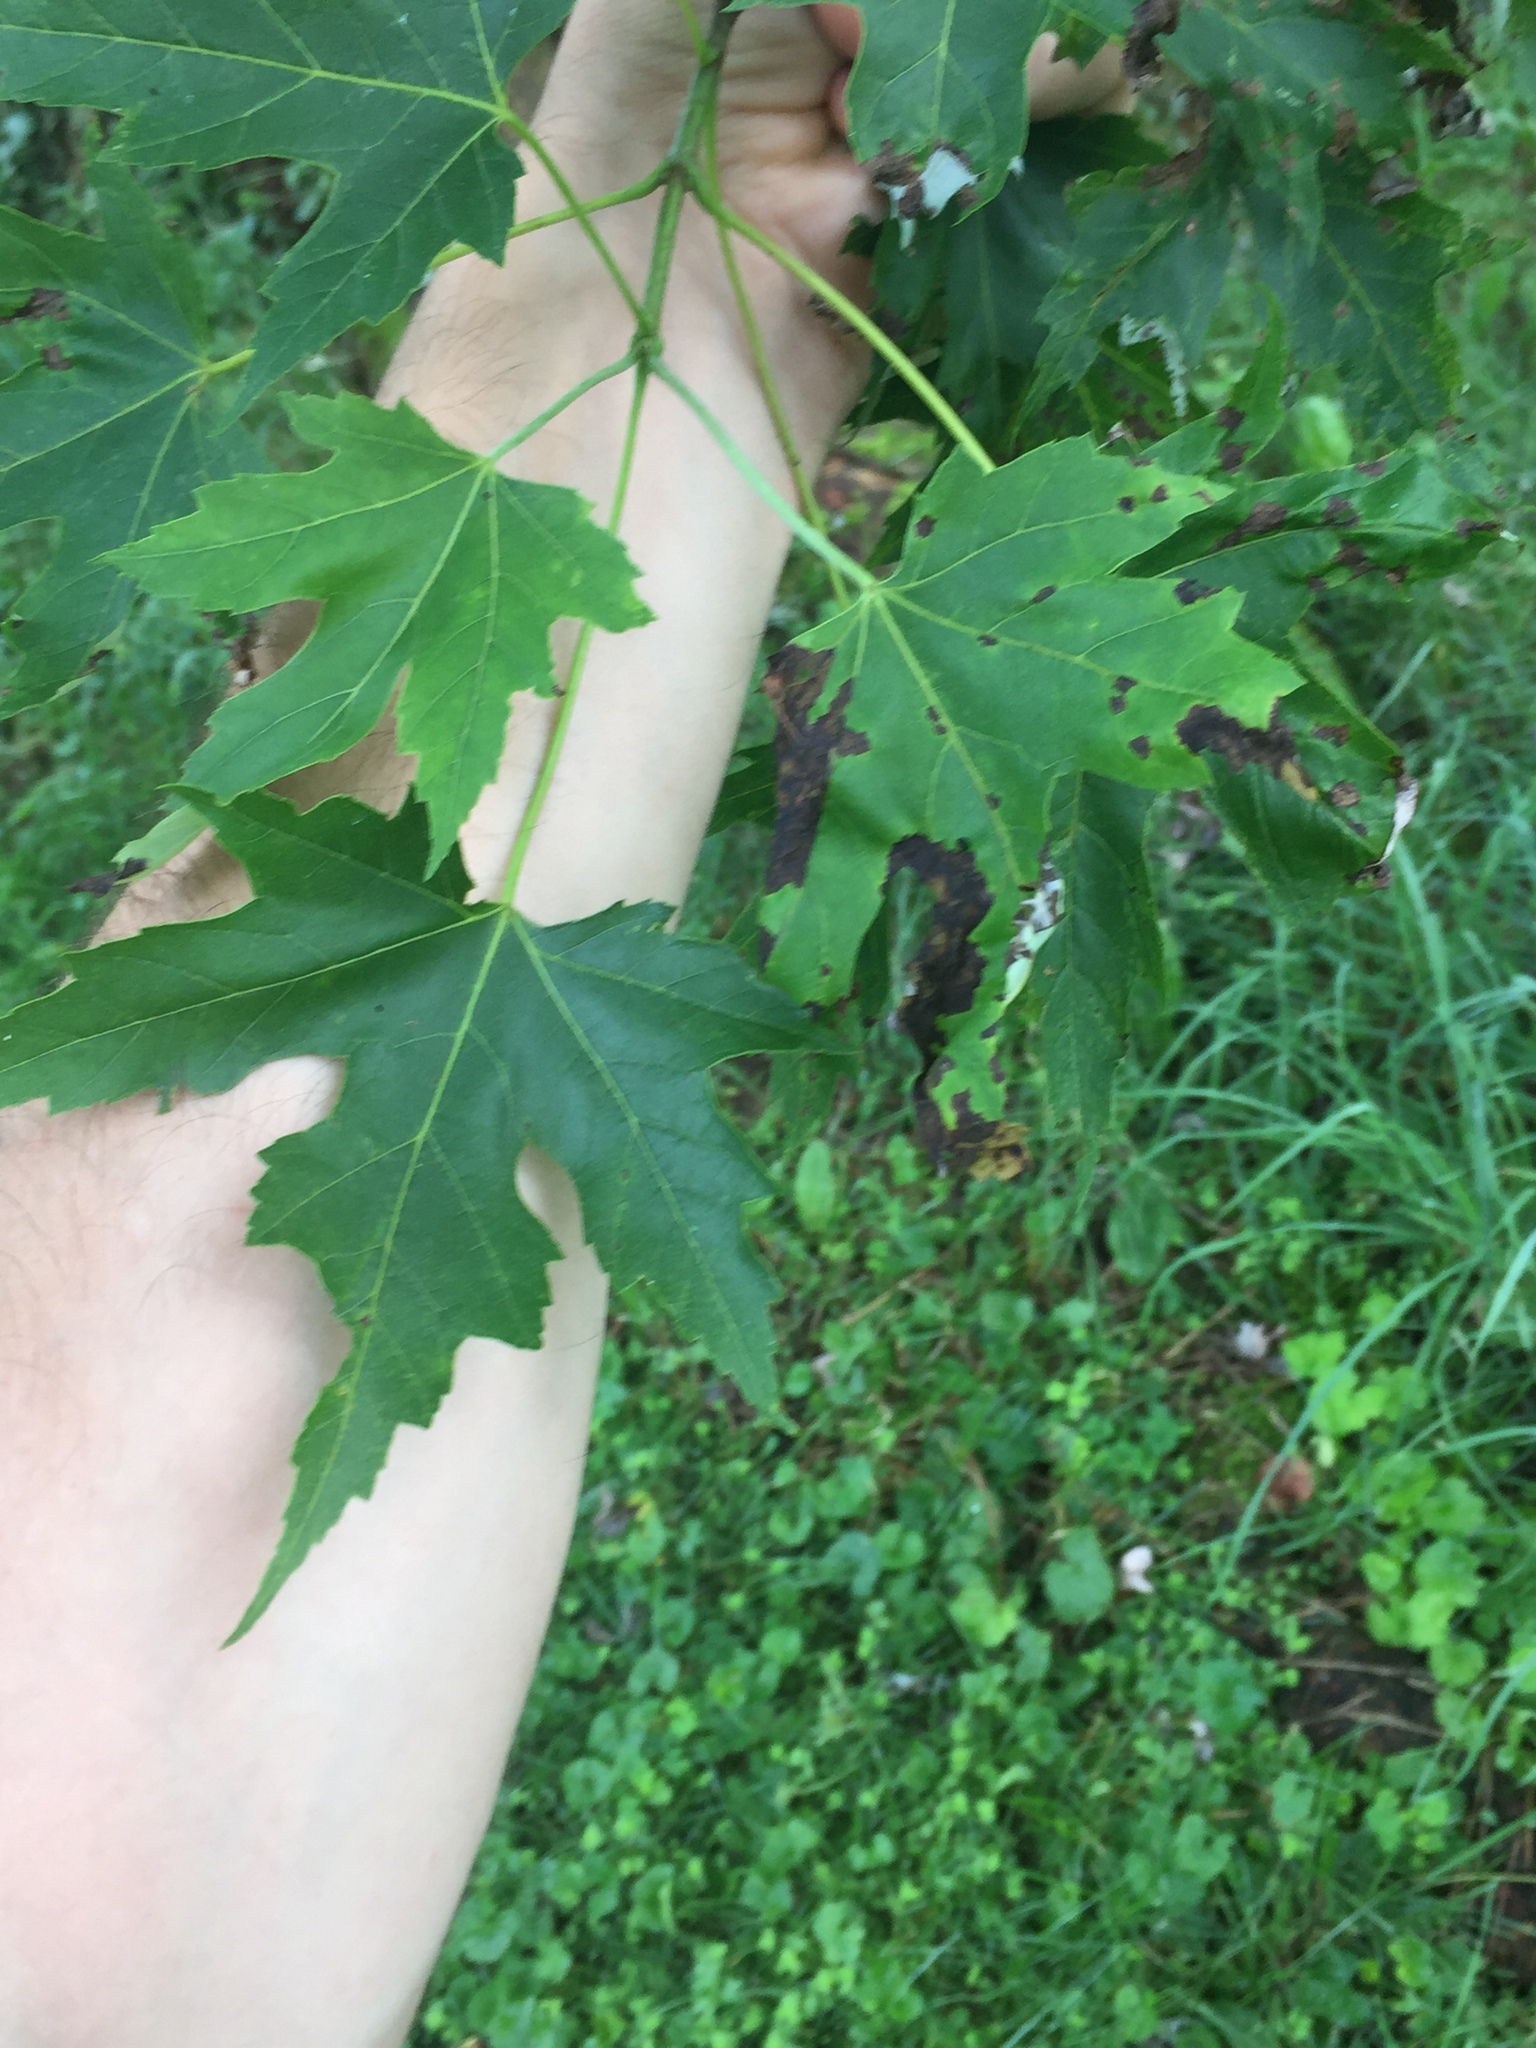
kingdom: Plantae
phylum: Tracheophyta
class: Magnoliopsida
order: Sapindales
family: Sapindaceae
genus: Acer
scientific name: Acer saccharinum
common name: Silver maple
